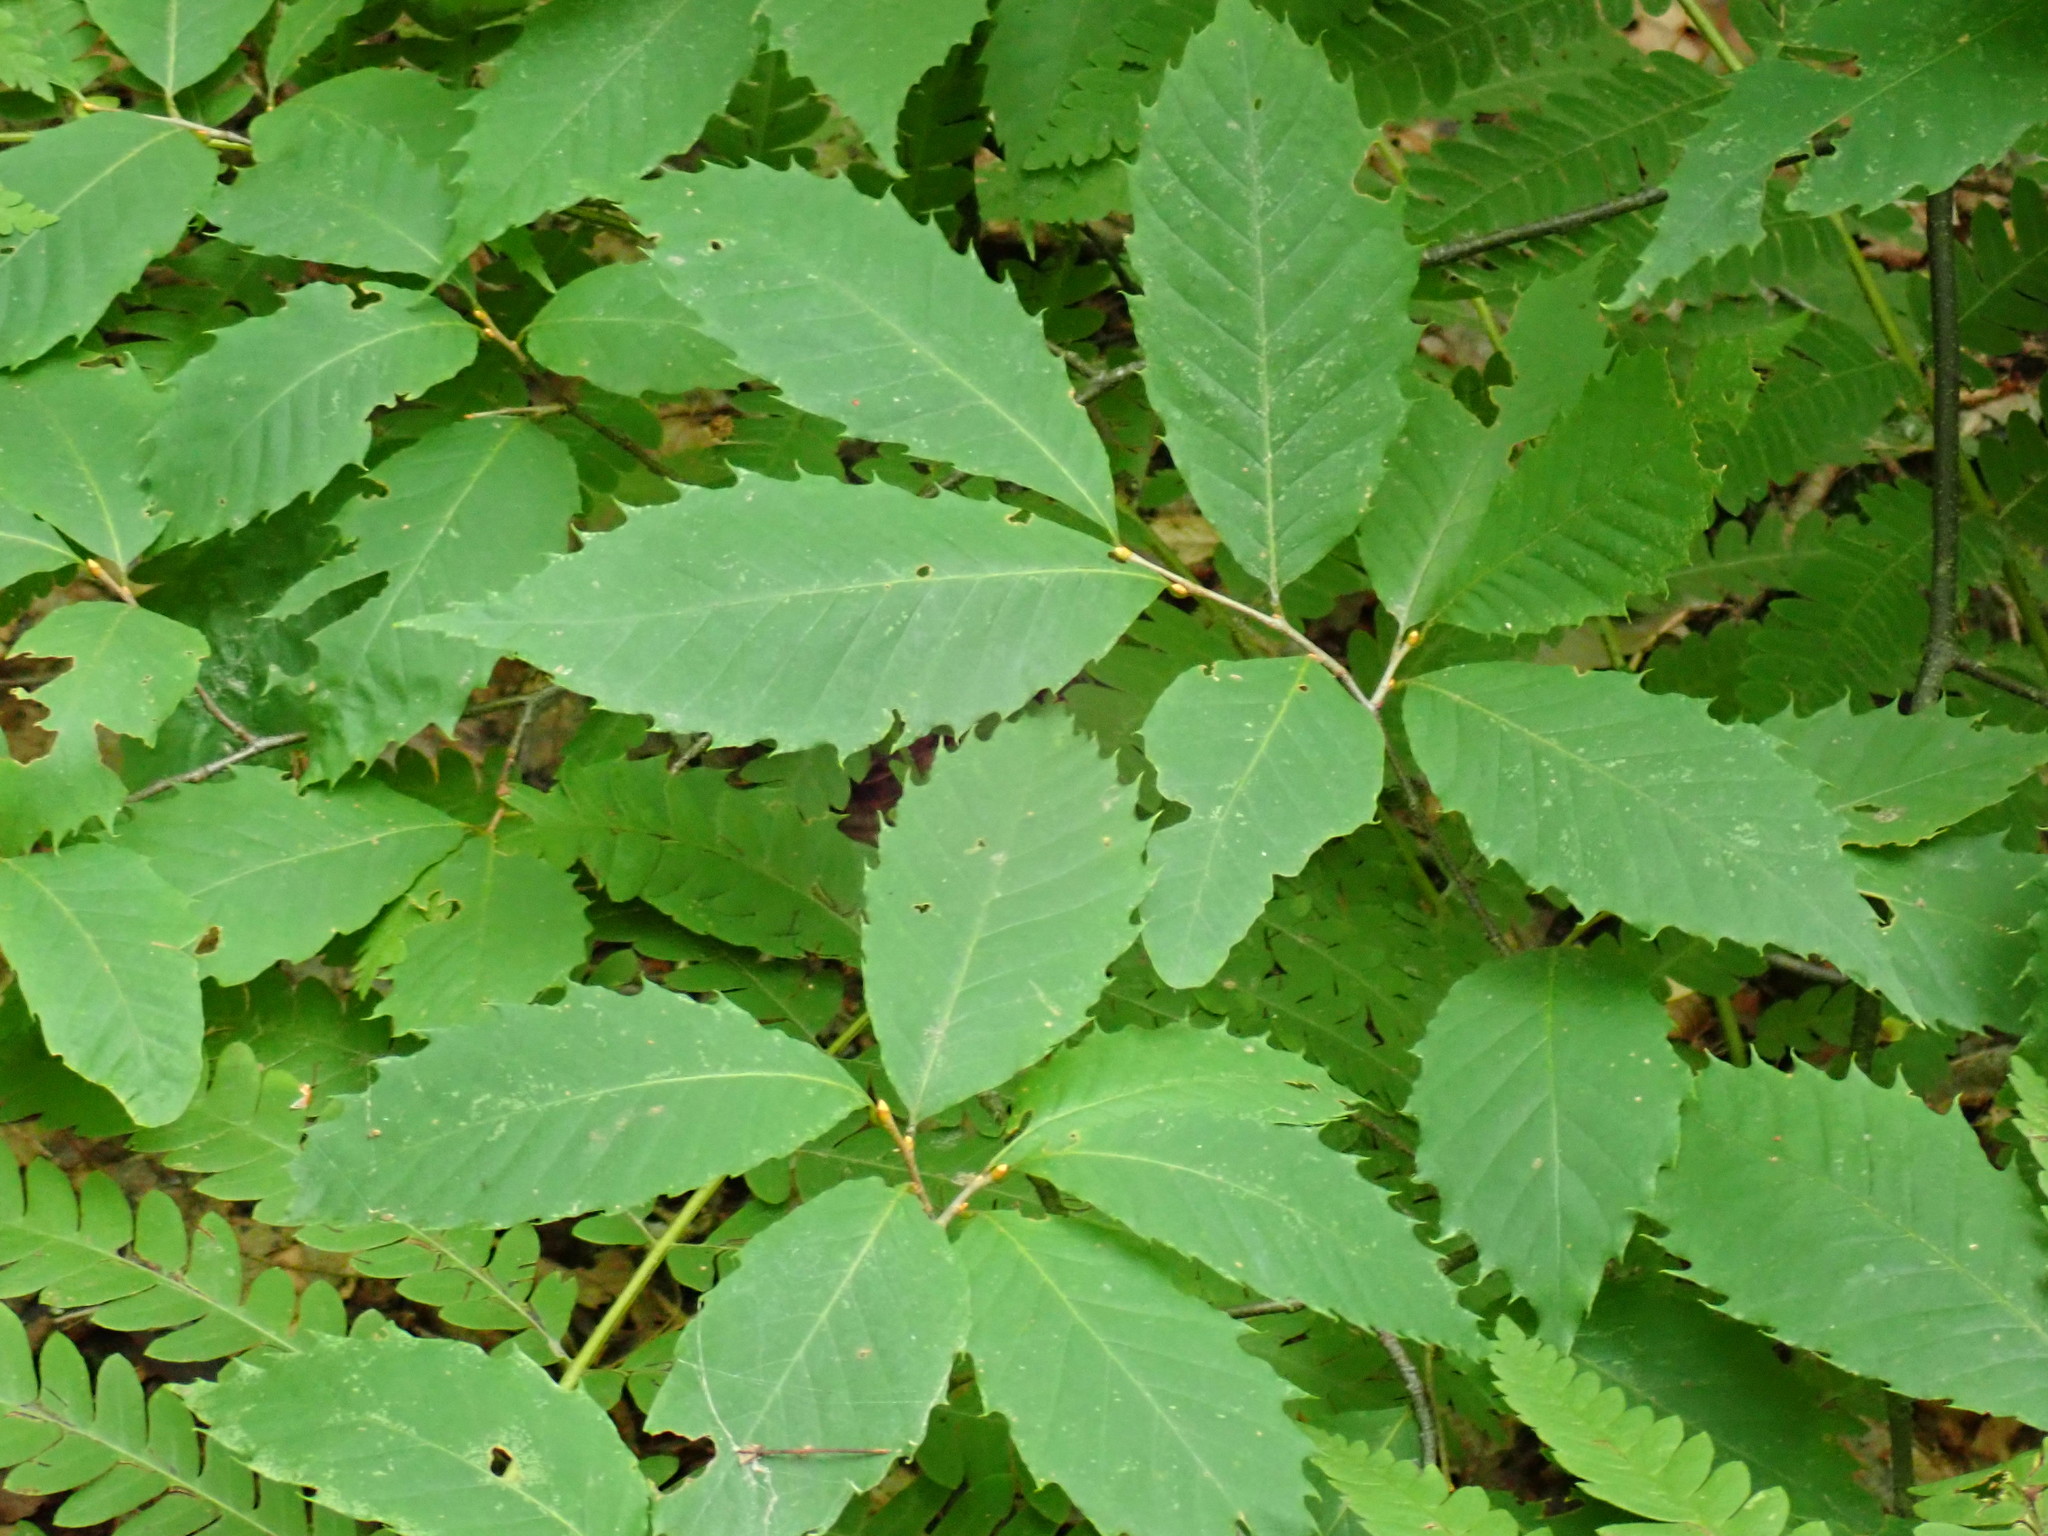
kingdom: Plantae
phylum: Tracheophyta
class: Magnoliopsida
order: Fagales
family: Fagaceae
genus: Castanea
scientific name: Castanea dentata
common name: American chestnut
